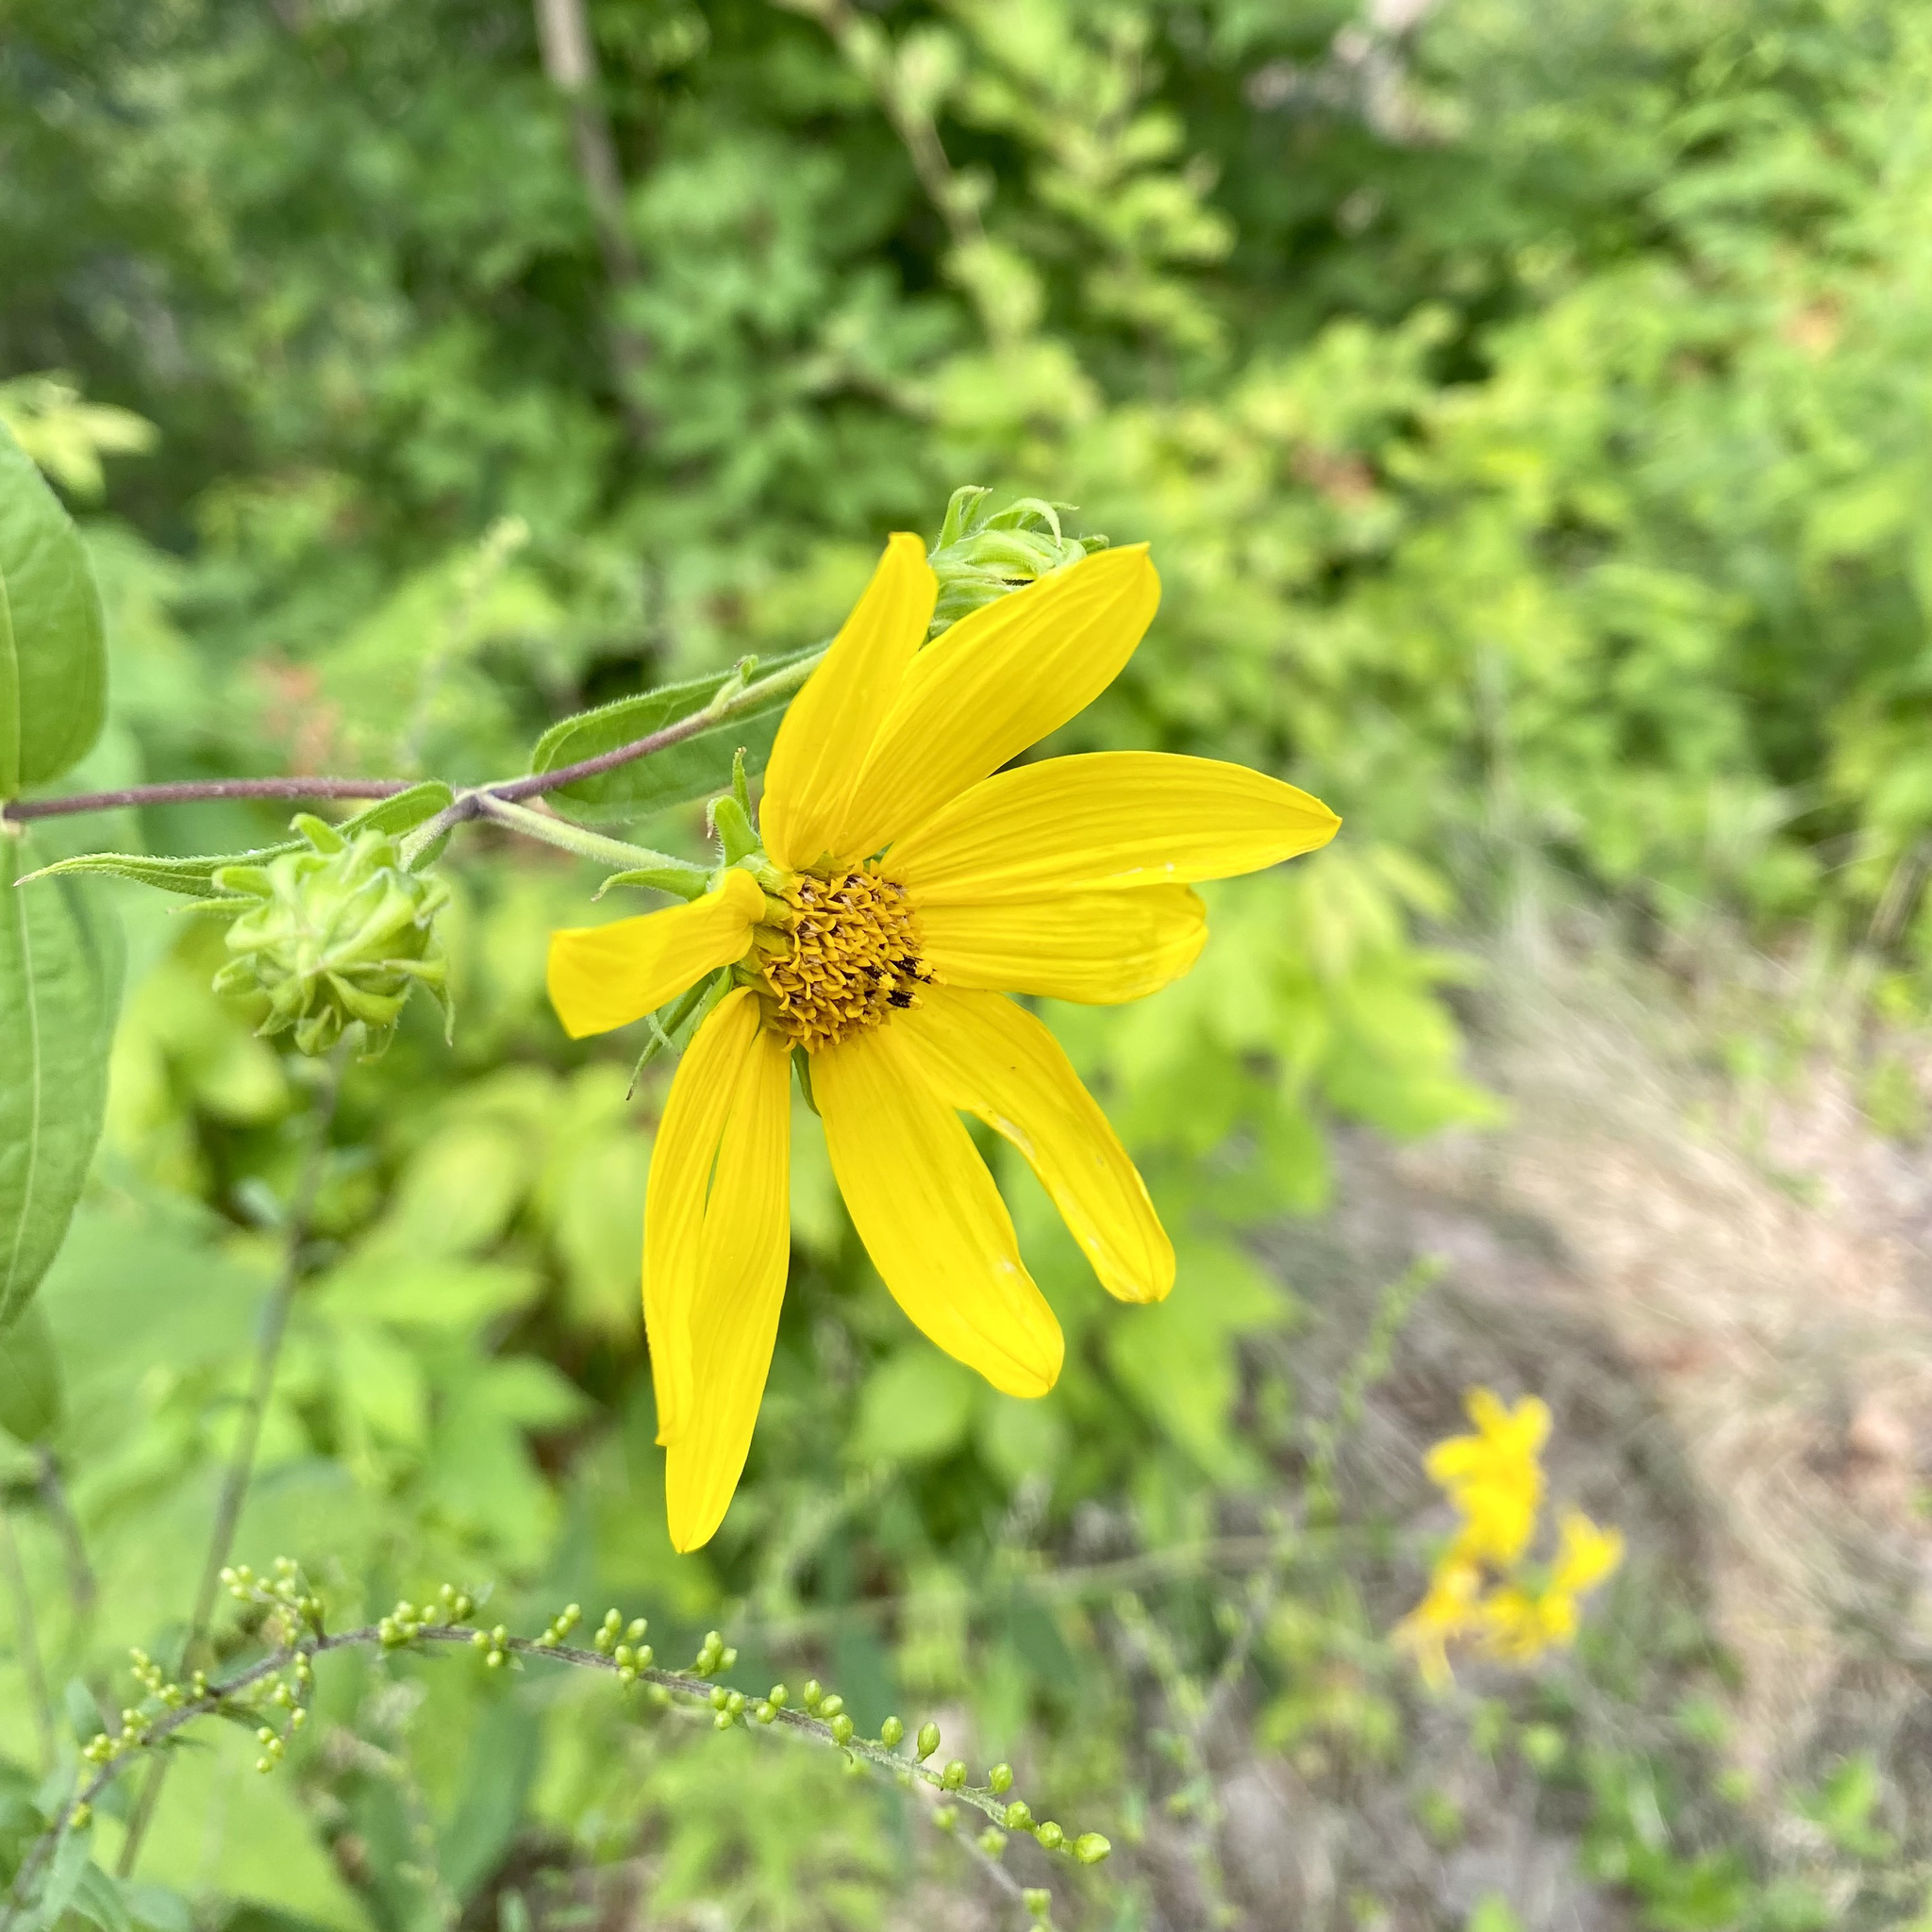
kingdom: Plantae
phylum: Tracheophyta
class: Magnoliopsida
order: Asterales
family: Asteraceae
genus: Helianthus
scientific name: Helianthus divaricatus
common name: Divergent sunflower
